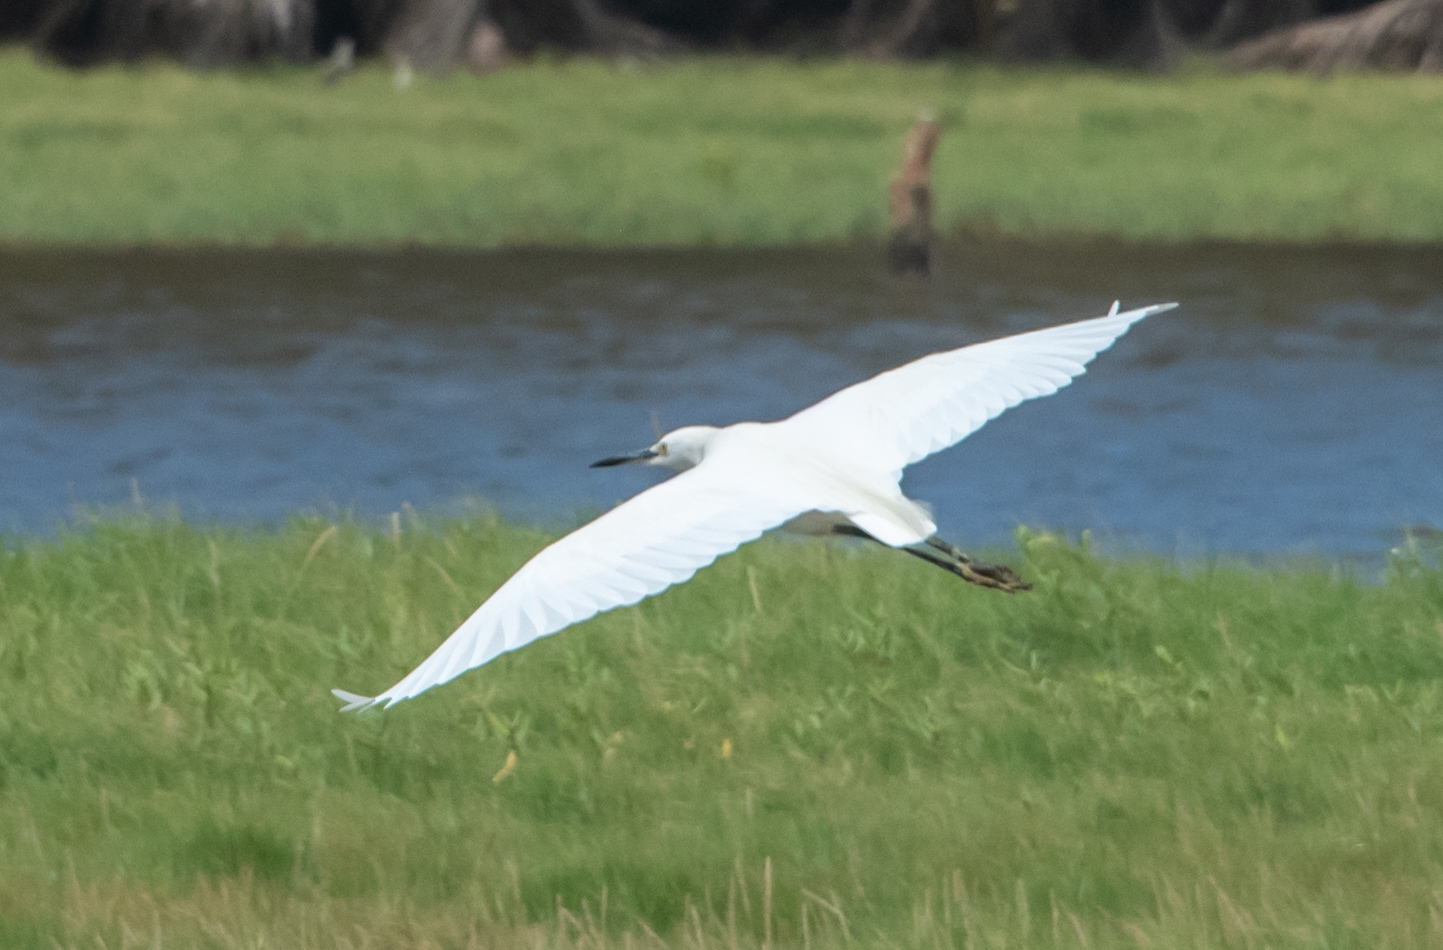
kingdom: Animalia
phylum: Chordata
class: Aves
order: Pelecaniformes
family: Ardeidae
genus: Egretta
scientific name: Egretta garzetta
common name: Little egret
